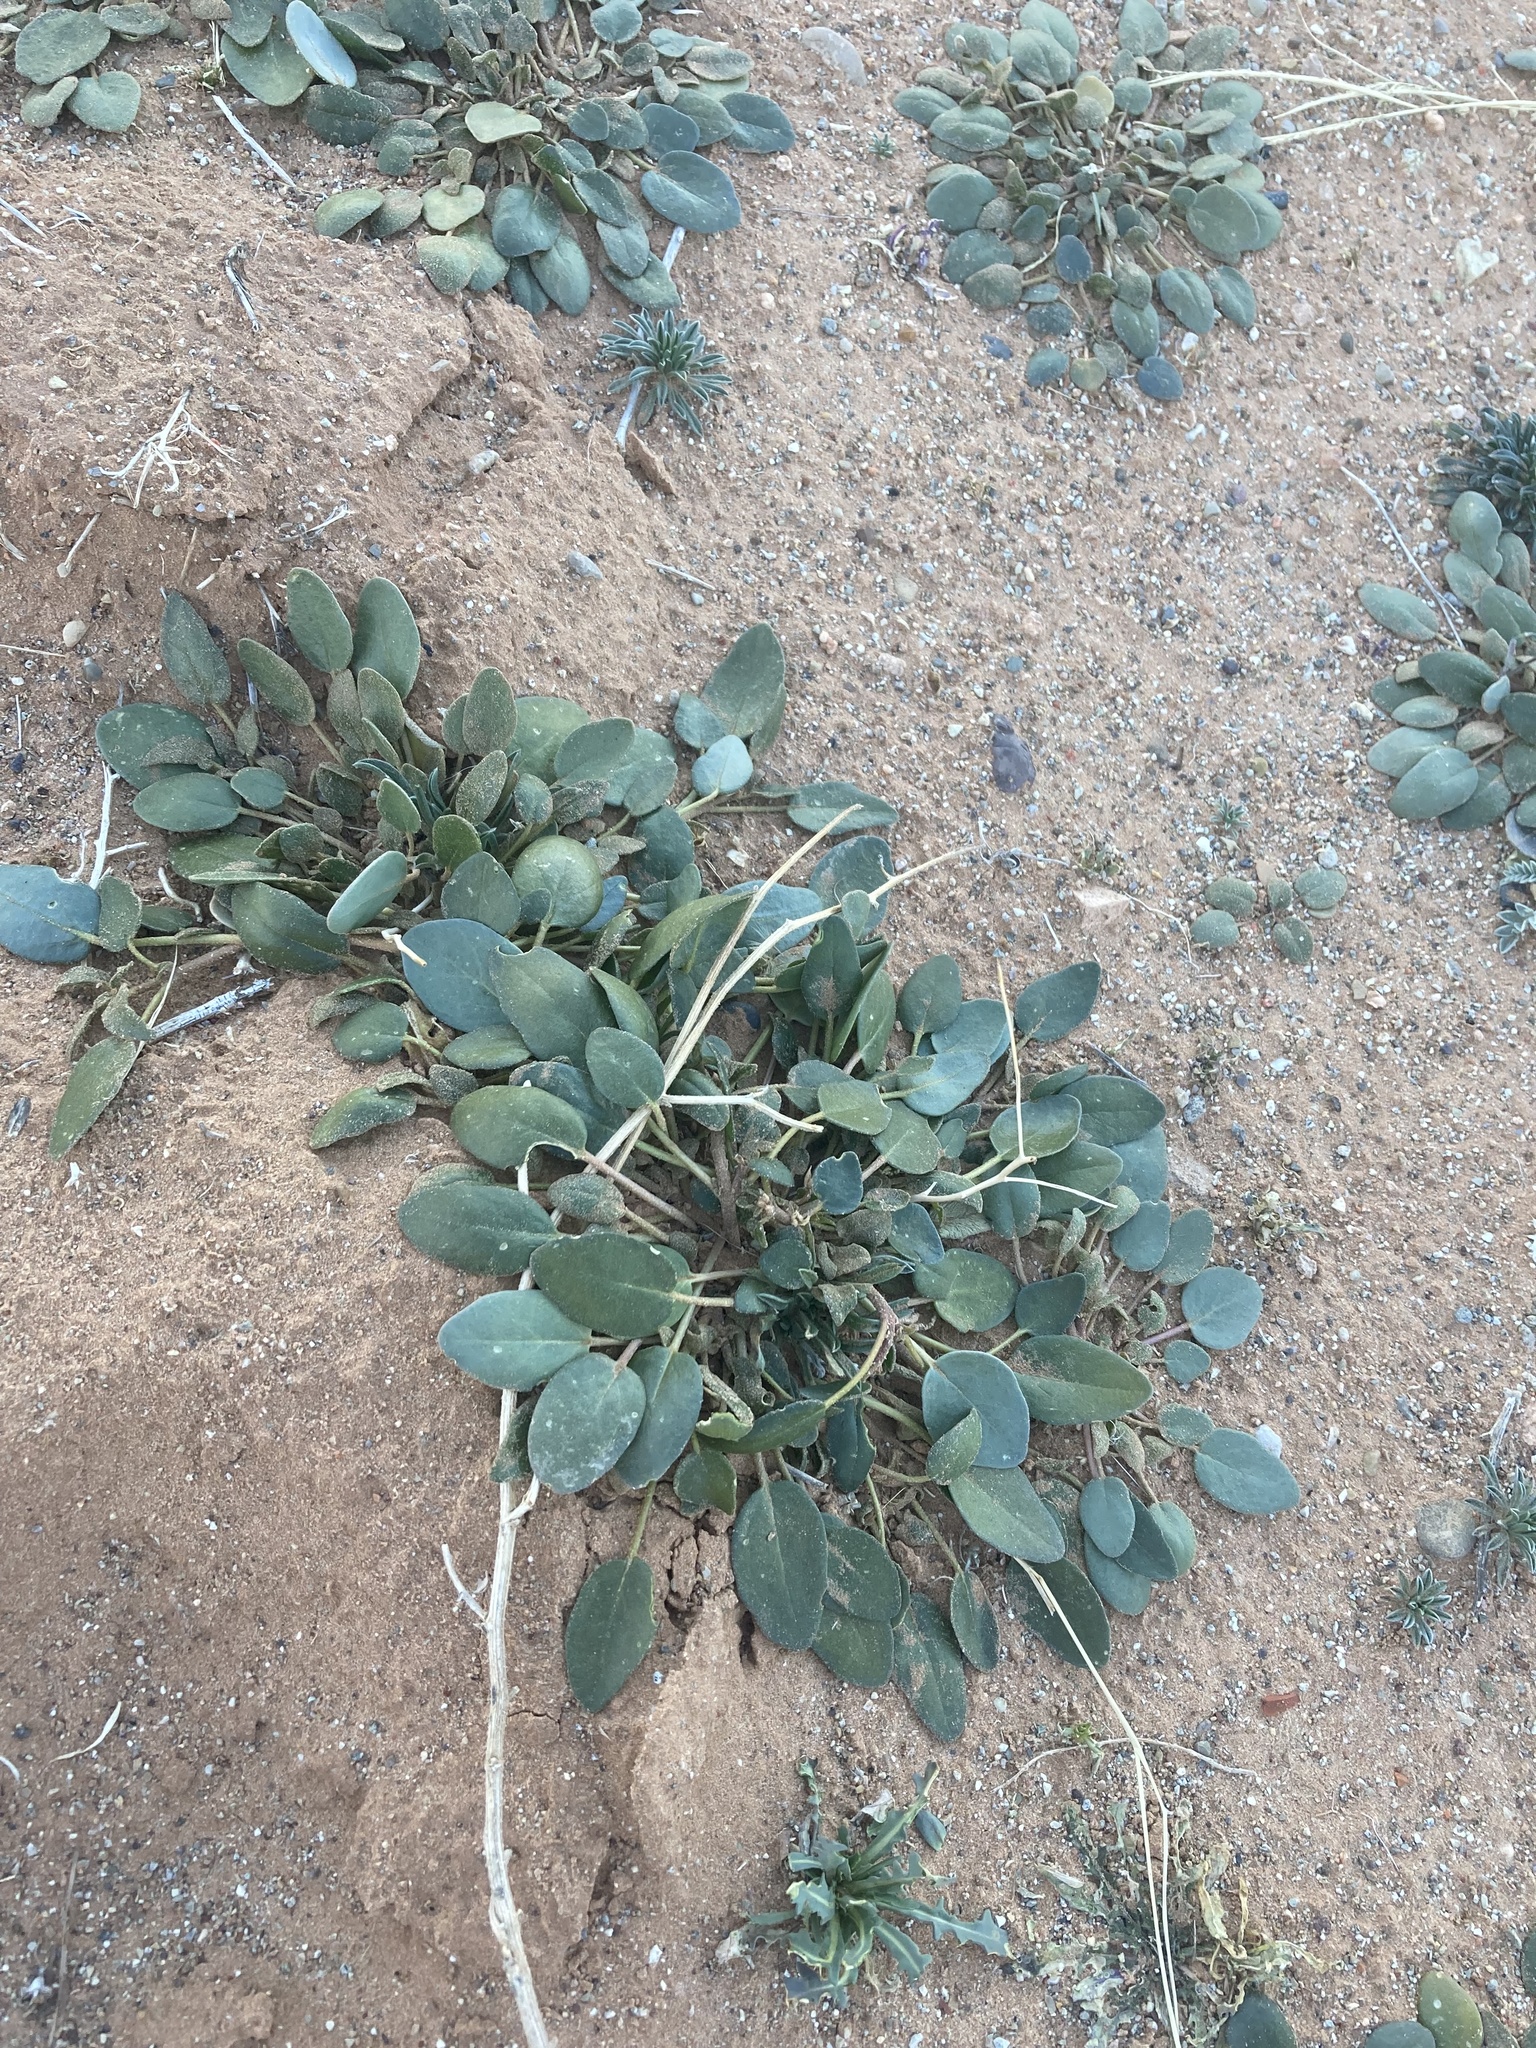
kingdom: Plantae
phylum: Tracheophyta
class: Magnoliopsida
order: Caryophyllales
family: Nyctaginaceae
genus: Abronia
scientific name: Abronia elliptica
